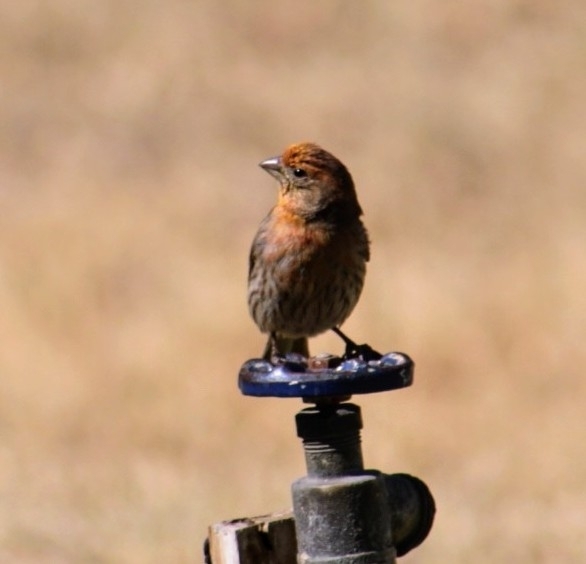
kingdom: Animalia
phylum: Chordata
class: Aves
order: Passeriformes
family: Fringillidae
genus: Haemorhous
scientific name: Haemorhous mexicanus
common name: House finch
